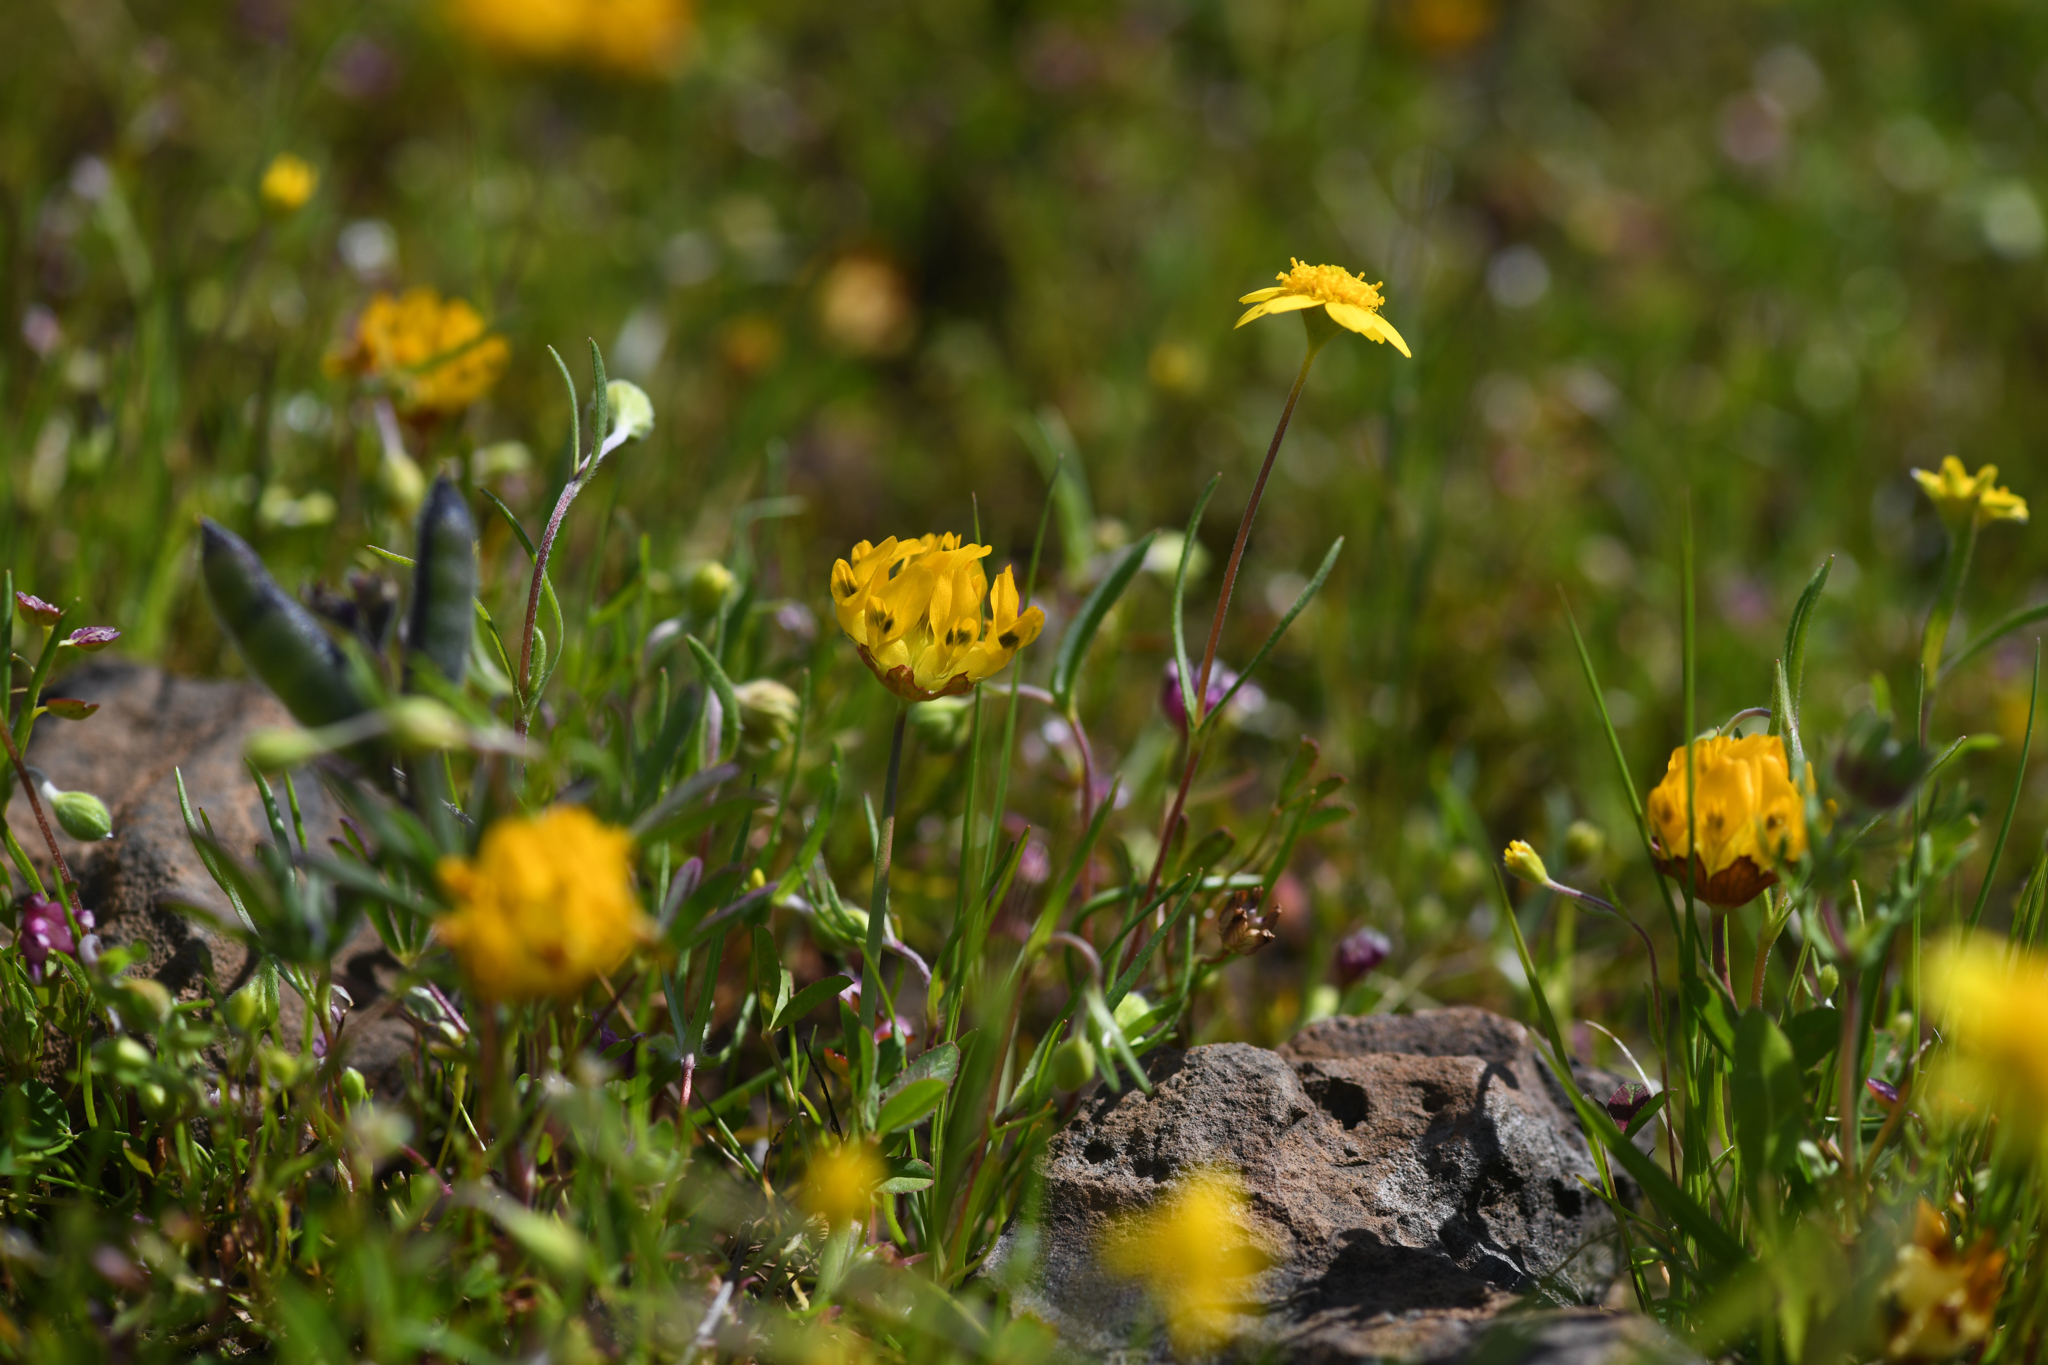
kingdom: Plantae
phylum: Tracheophyta
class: Magnoliopsida
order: Fabales
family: Fabaceae
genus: Trifolium
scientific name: Trifolium jokerstii
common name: Butte county golden clover
